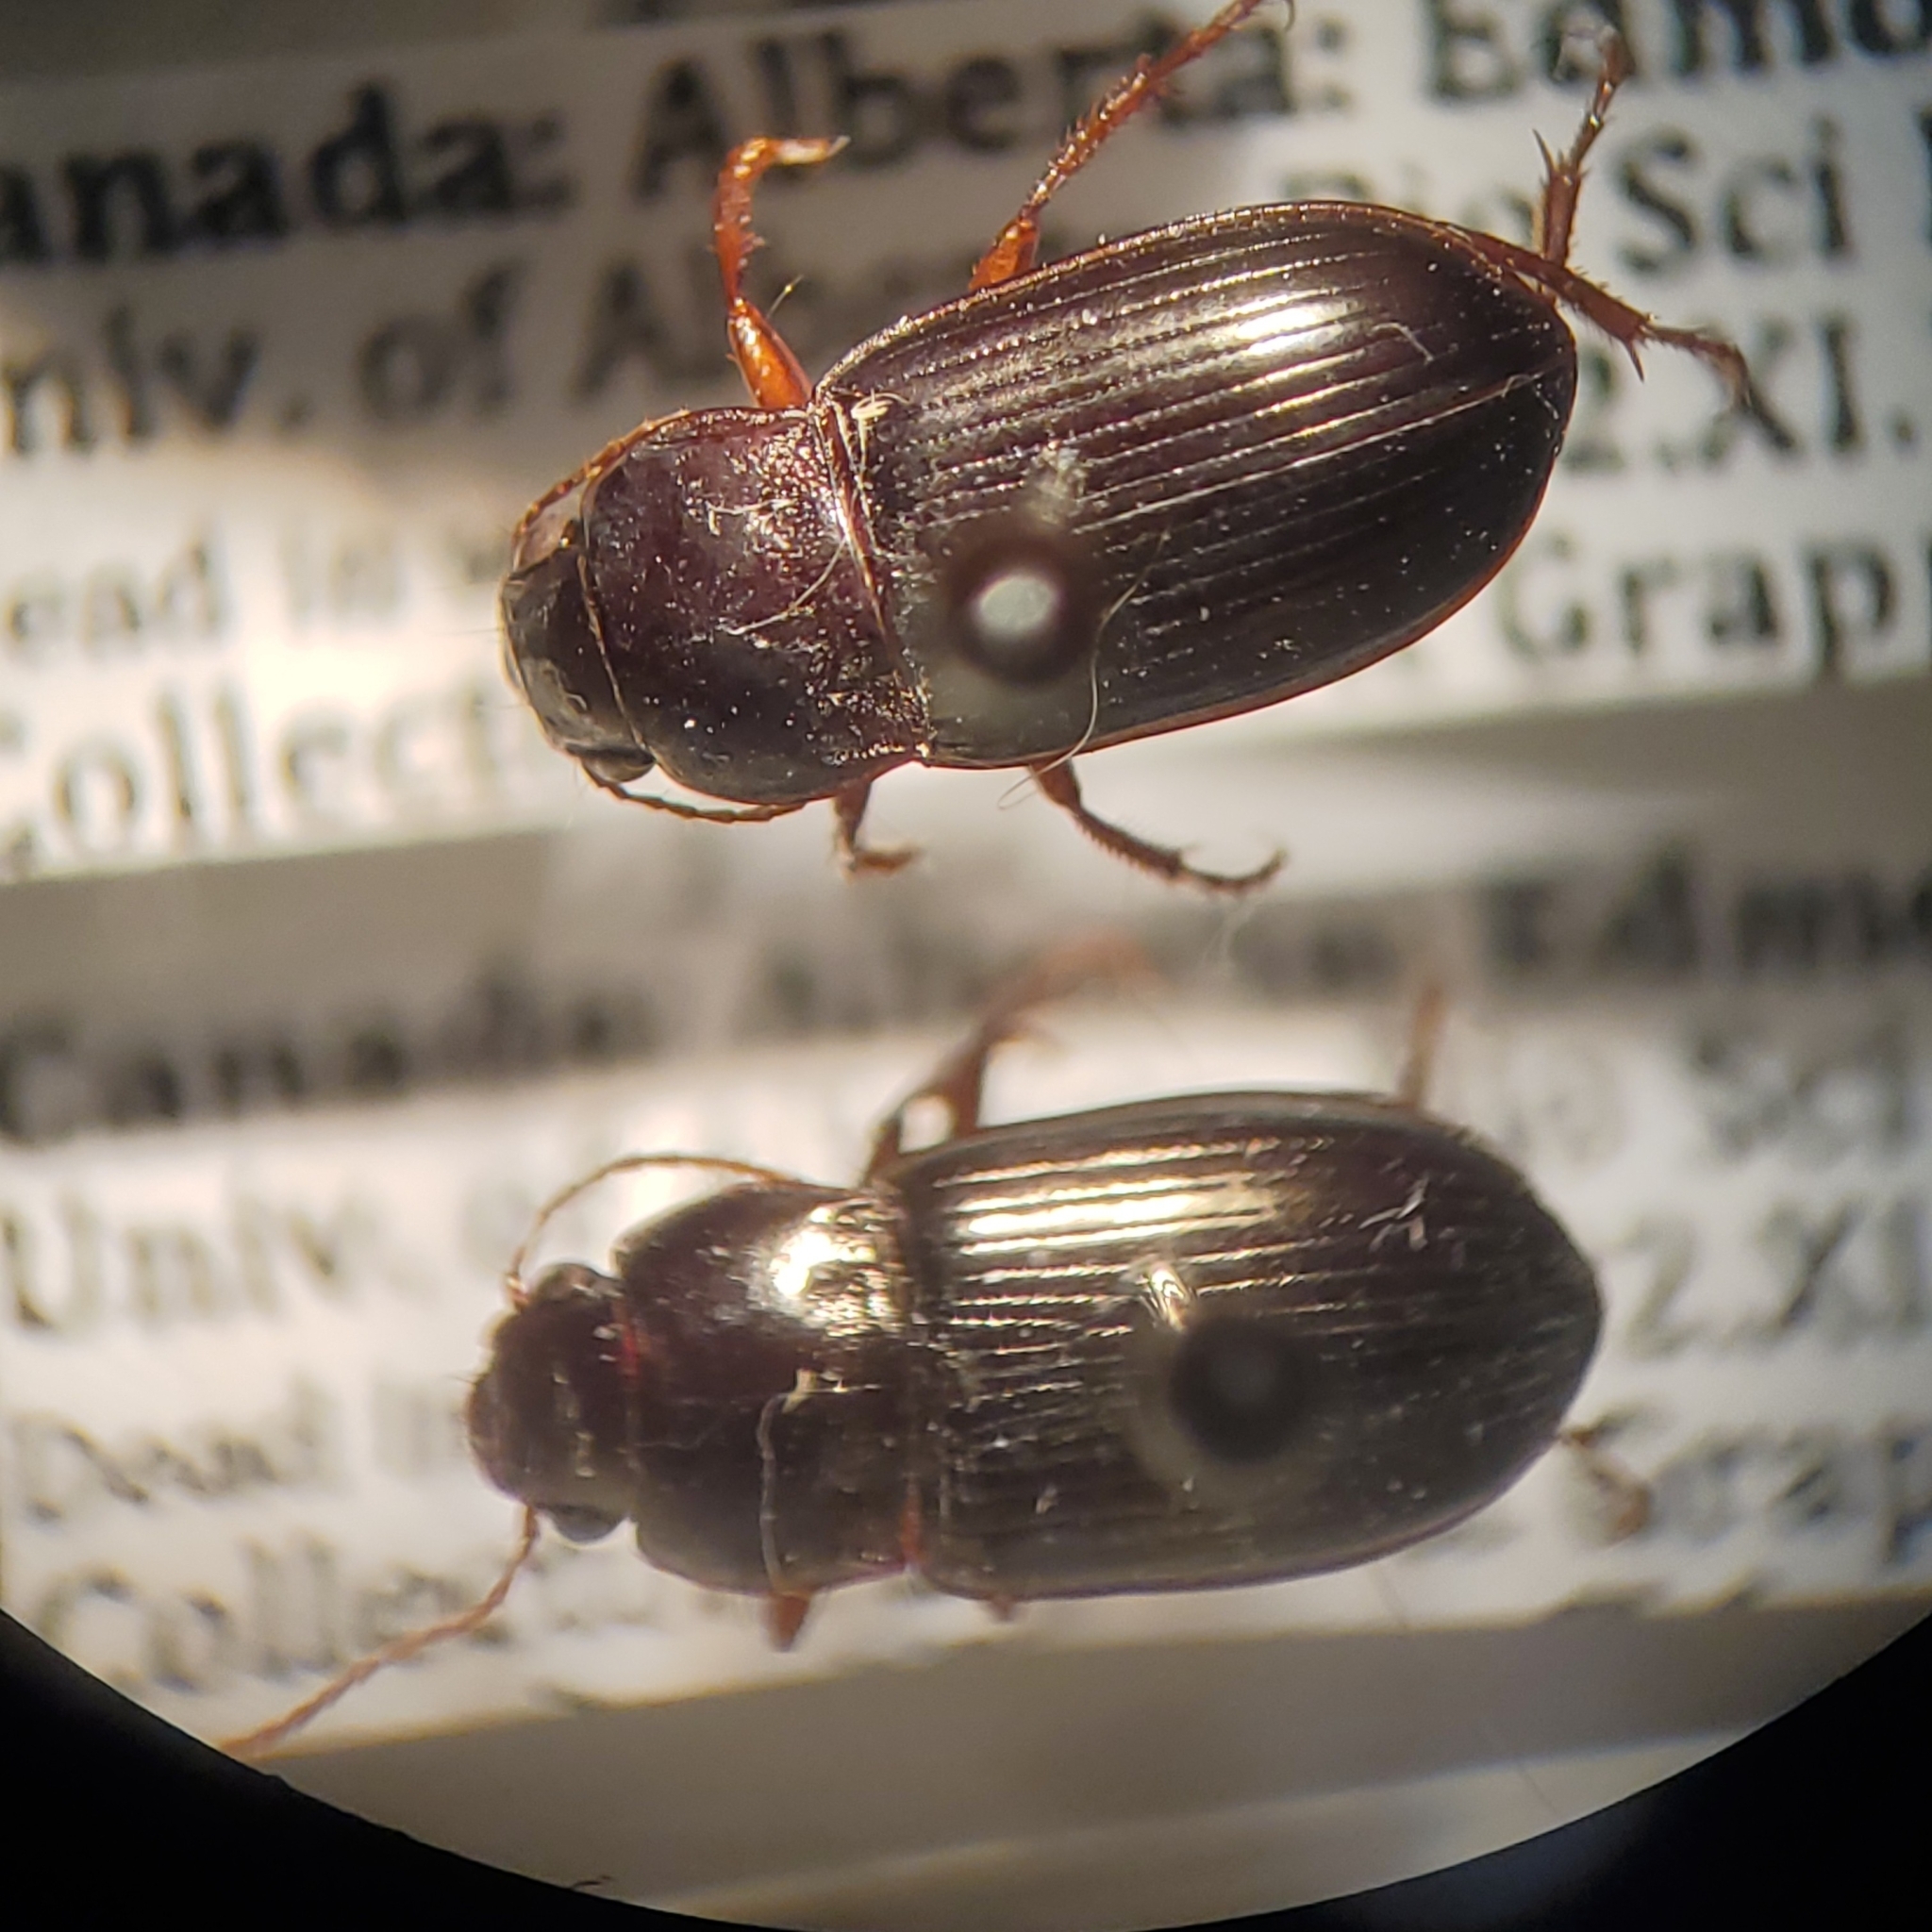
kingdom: Animalia
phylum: Arthropoda
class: Insecta
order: Coleoptera
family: Carabidae
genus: Amara
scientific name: Amara apricaria
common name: Exposed sun beetle
